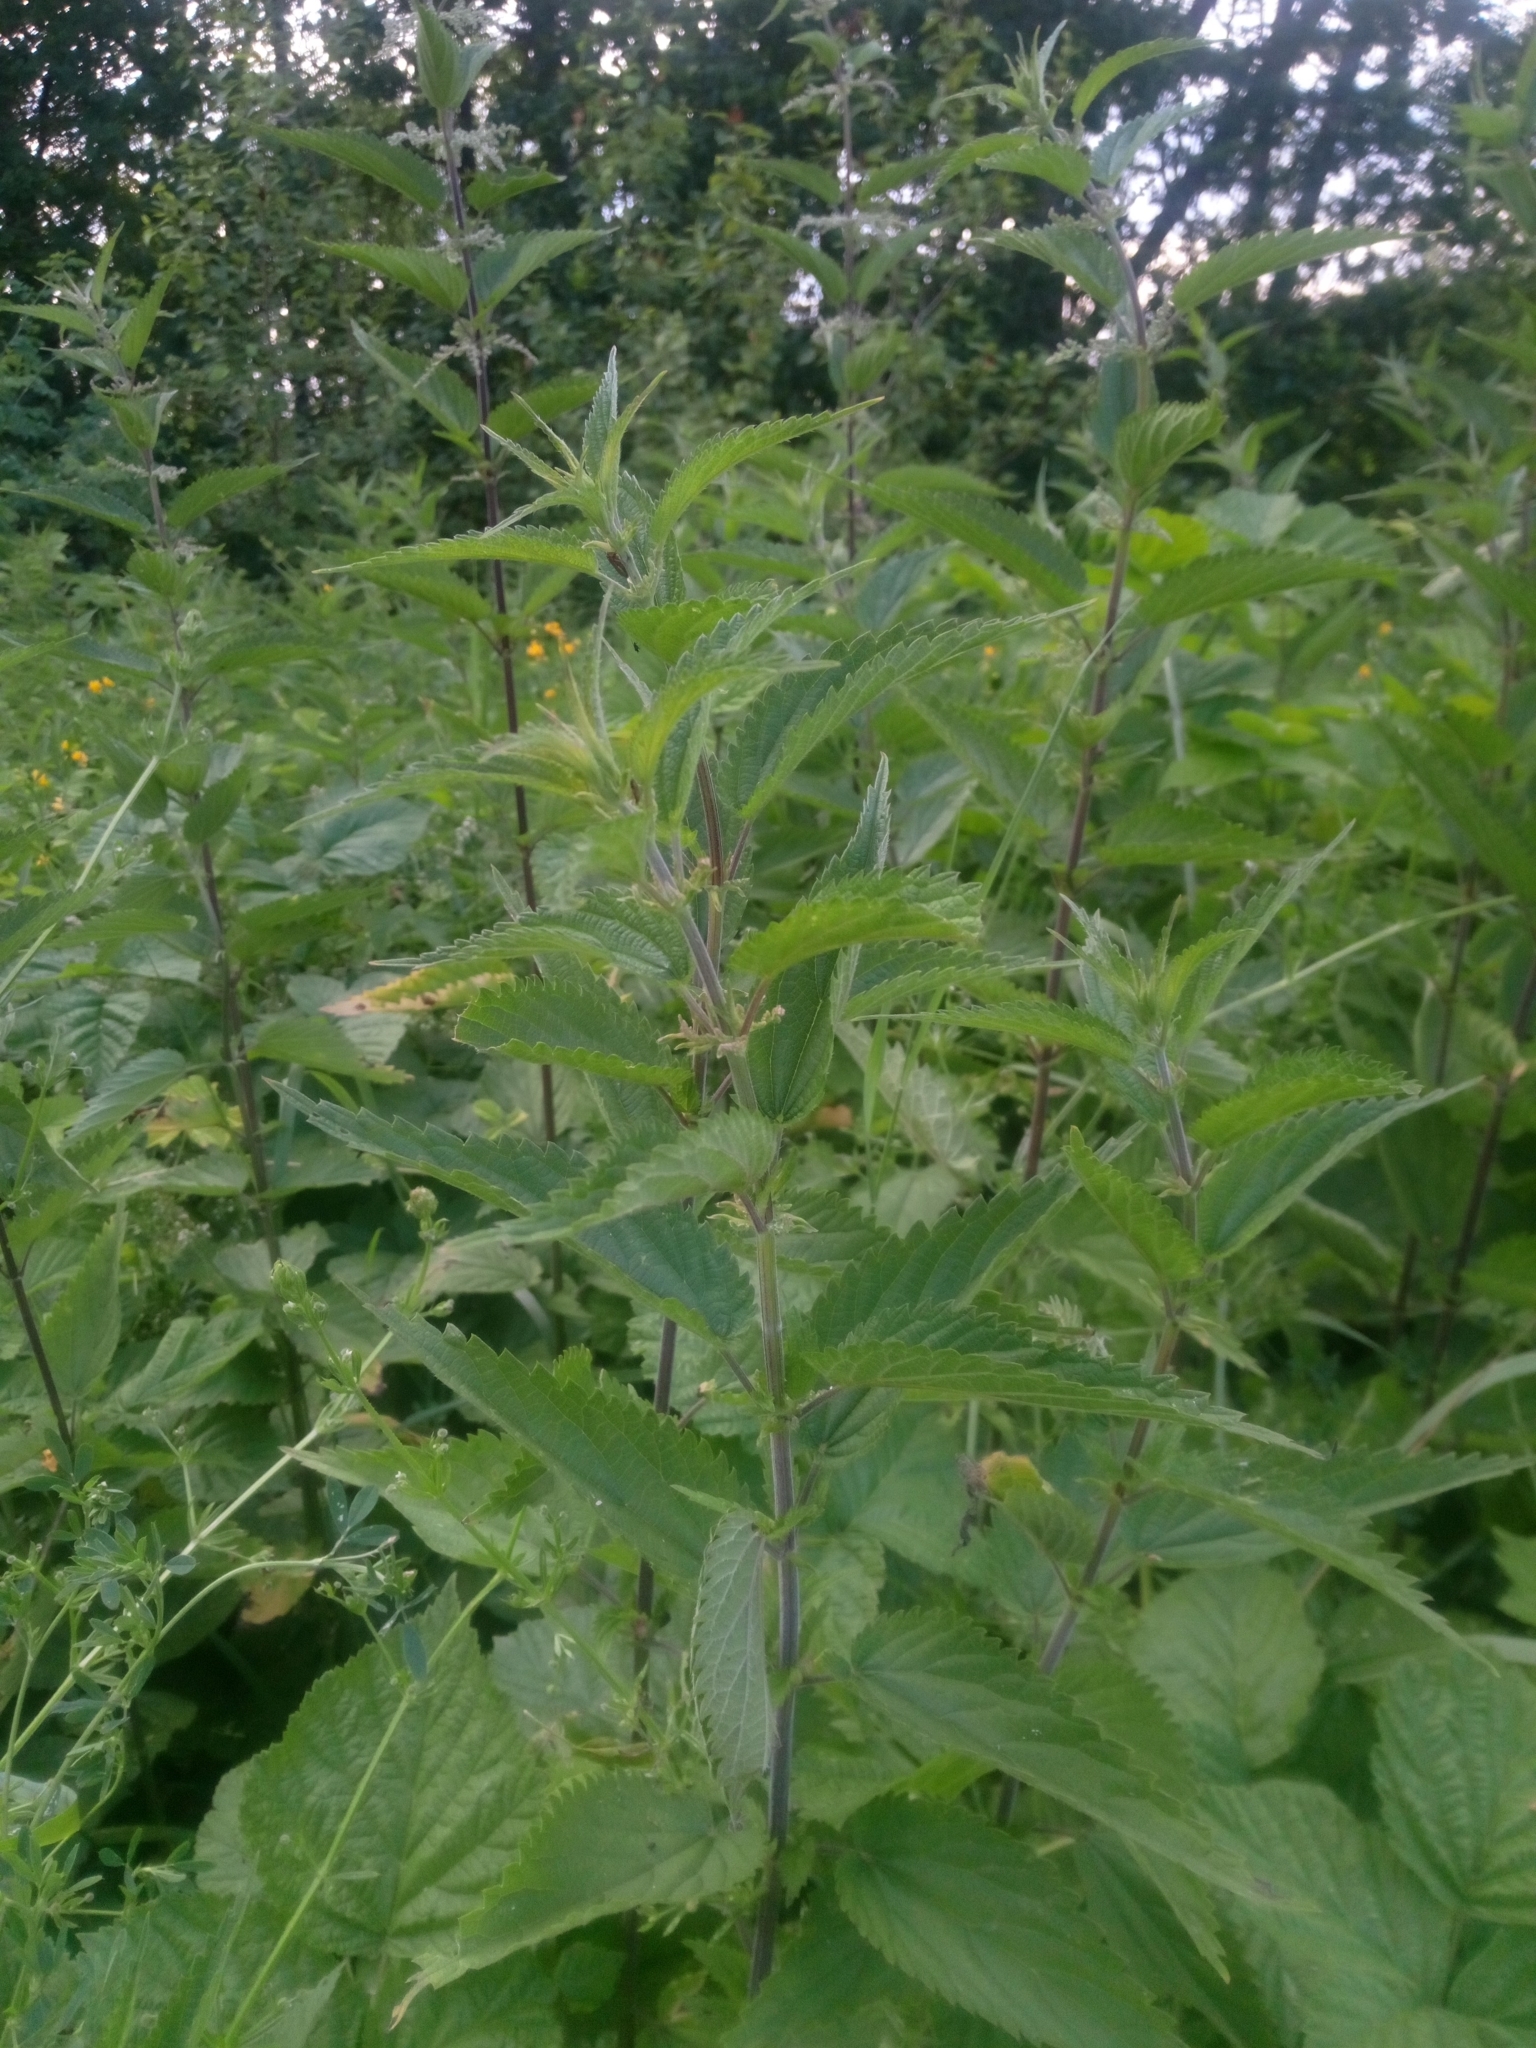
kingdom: Plantae
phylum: Tracheophyta
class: Magnoliopsida
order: Rosales
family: Urticaceae
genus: Urtica
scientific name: Urtica dioica
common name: Common nettle
